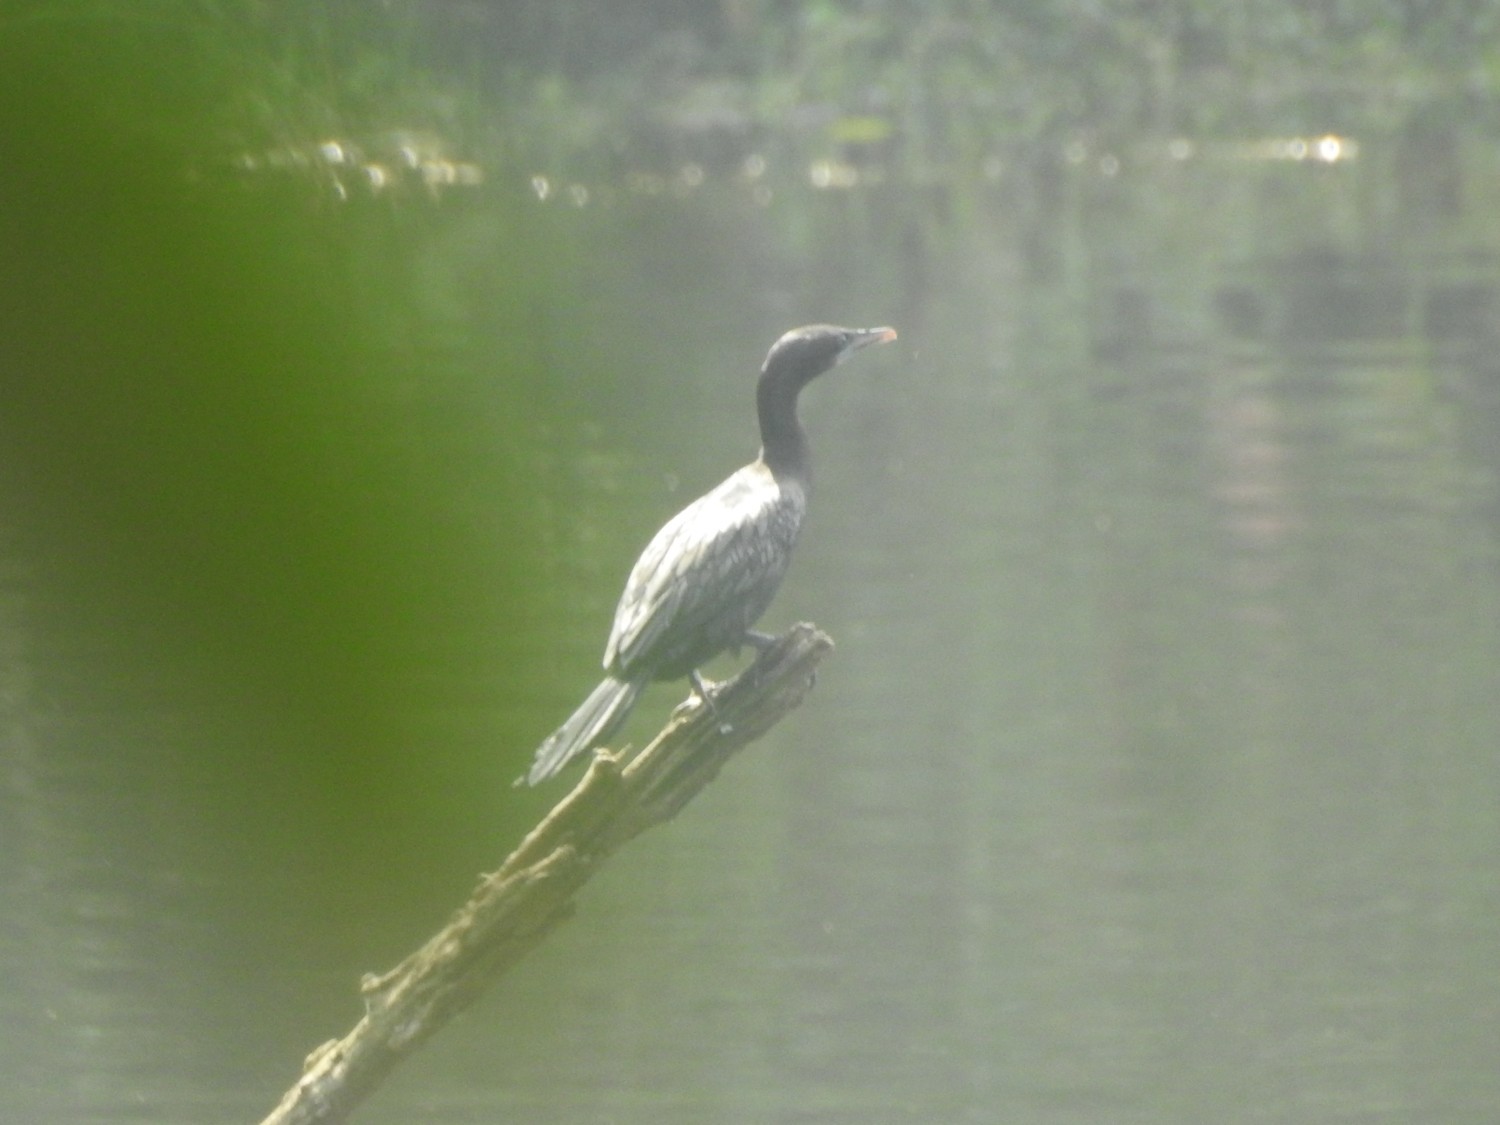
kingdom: Animalia
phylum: Chordata
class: Aves
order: Suliformes
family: Phalacrocoracidae
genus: Microcarbo
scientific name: Microcarbo niger
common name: Little cormorant
